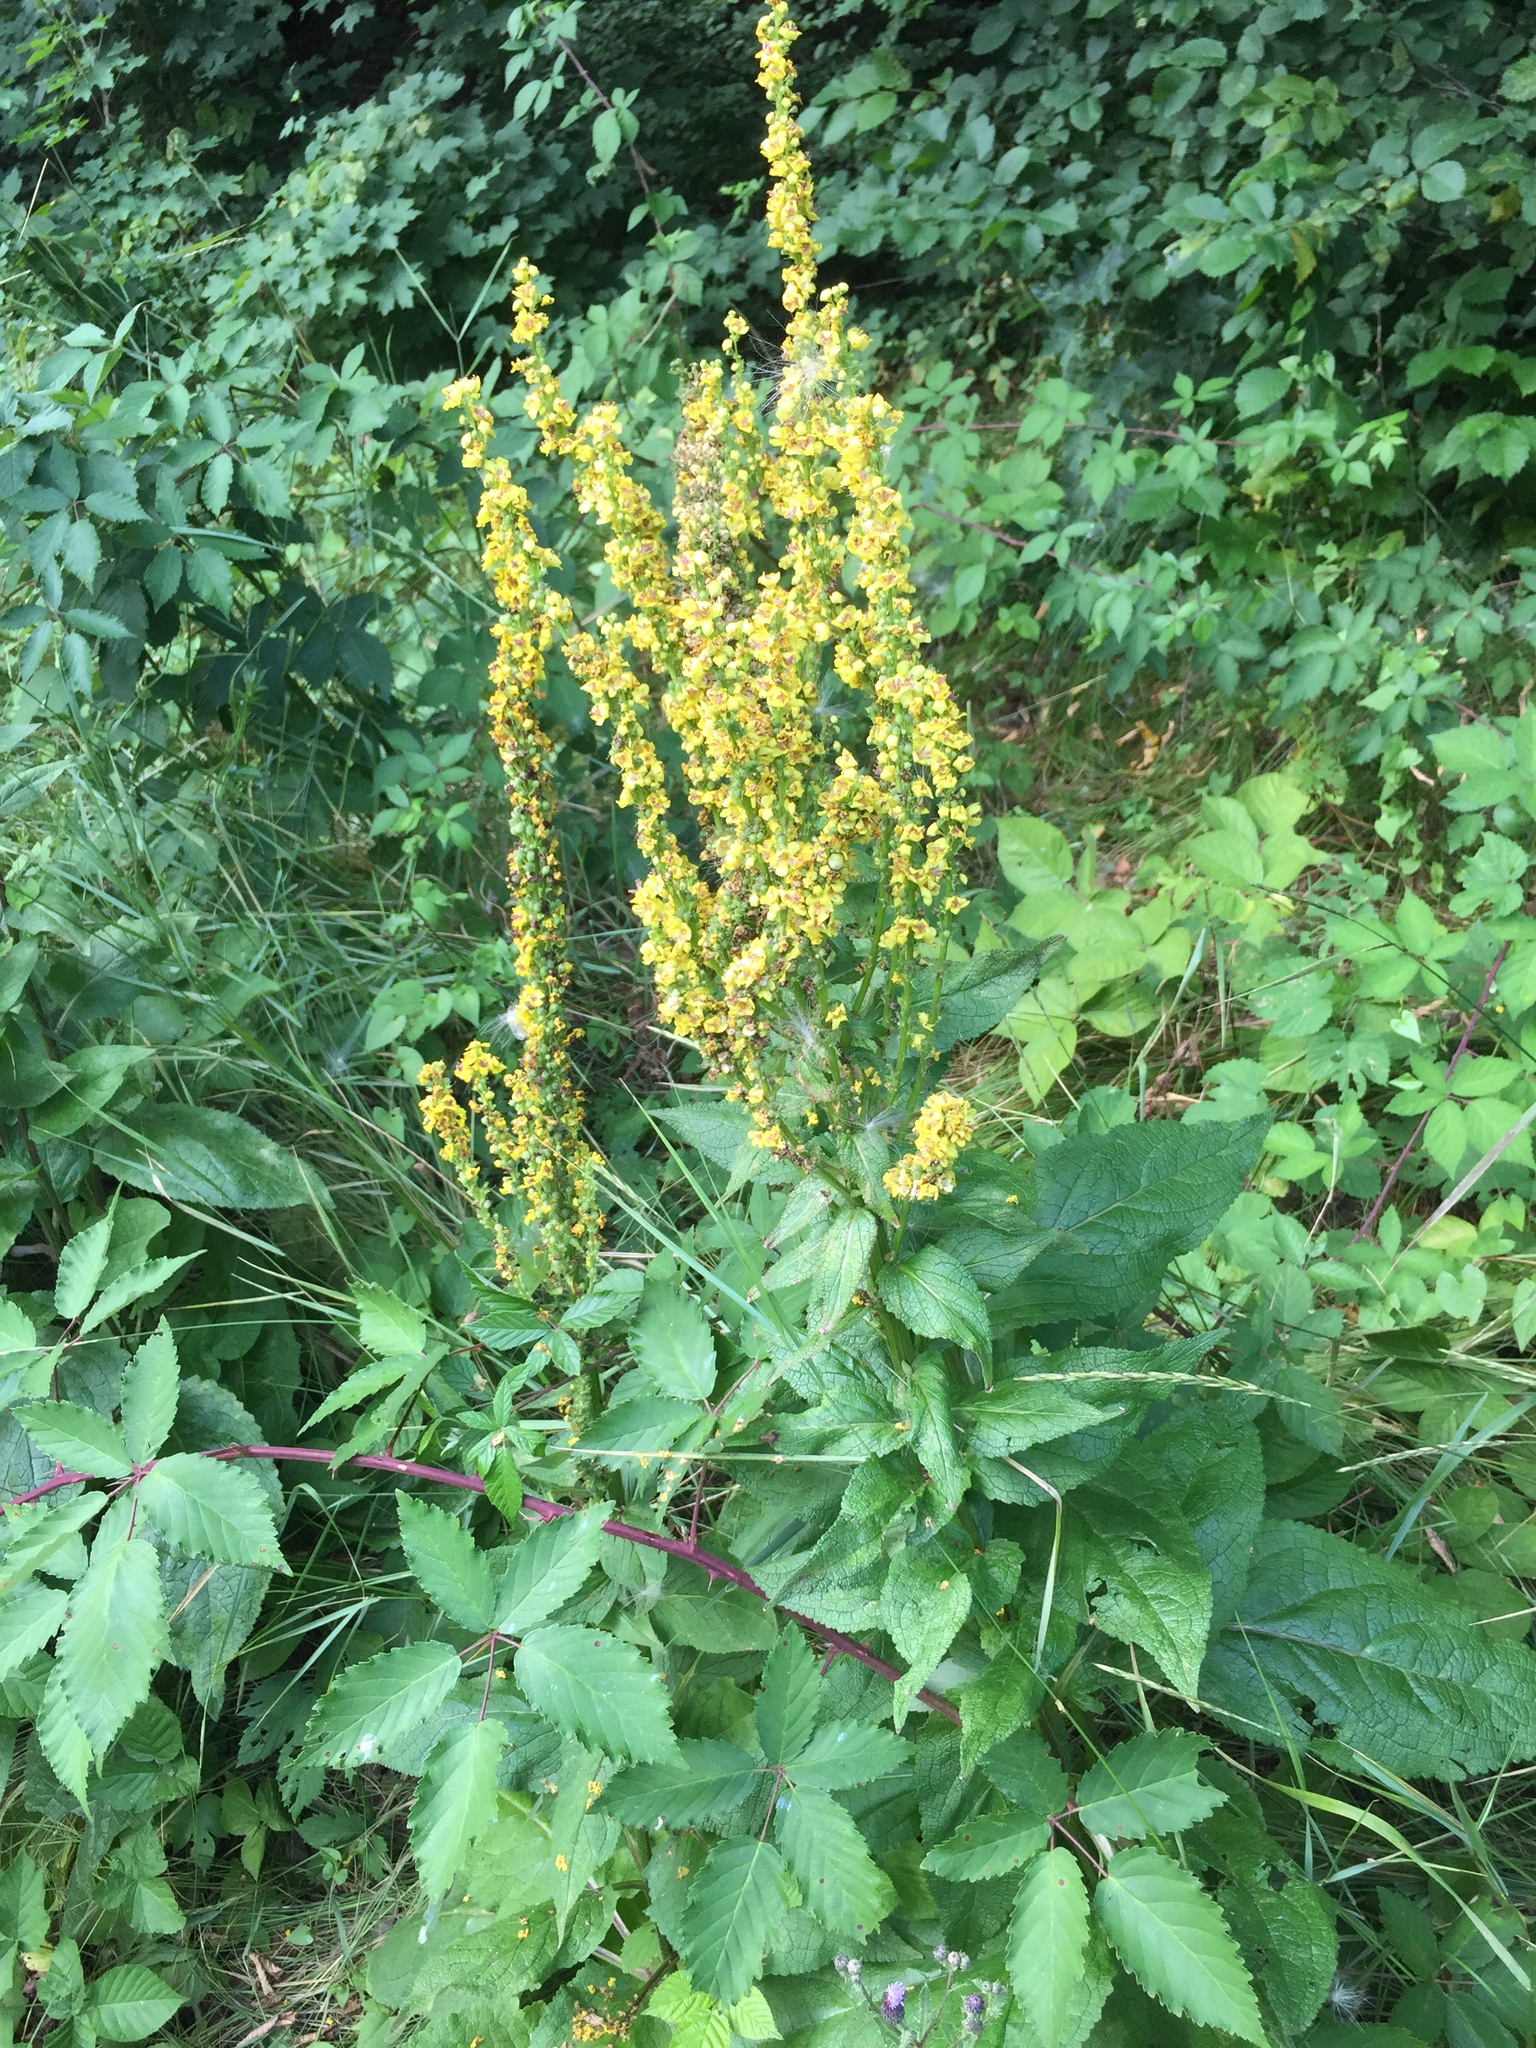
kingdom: Plantae
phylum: Tracheophyta
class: Magnoliopsida
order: Lamiales
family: Scrophulariaceae
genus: Verbascum
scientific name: Verbascum nigrum
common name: Dark mullein
